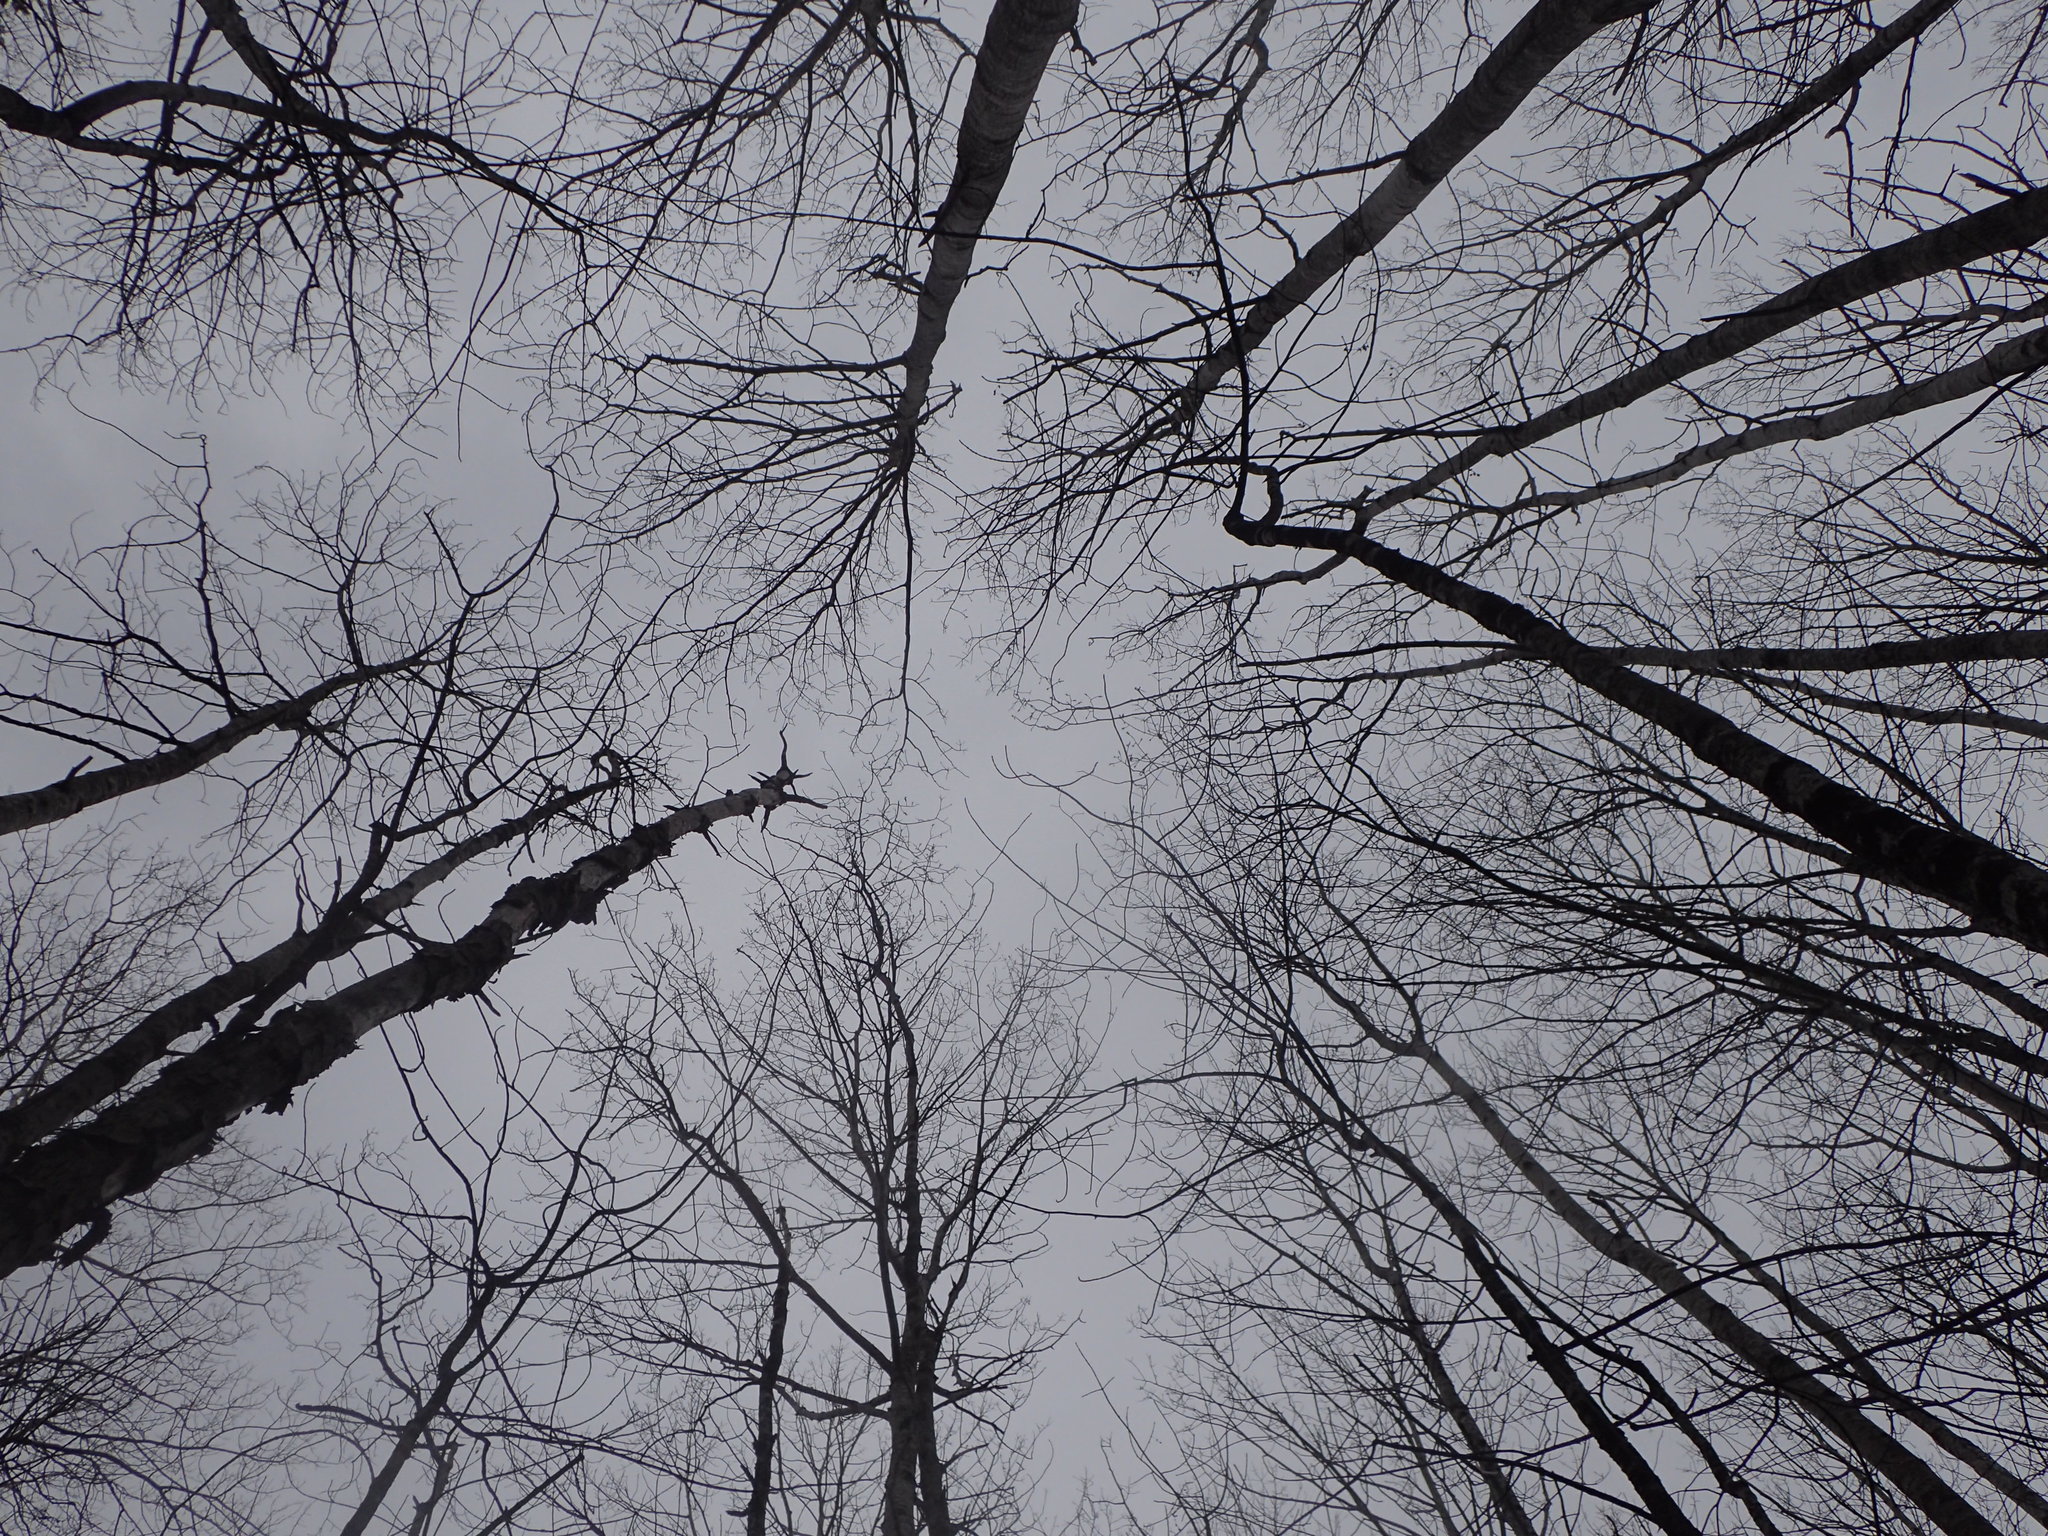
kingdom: Plantae
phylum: Tracheophyta
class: Magnoliopsida
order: Malpighiales
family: Salicaceae
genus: Populus
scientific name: Populus grandidentata
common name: Bigtooth aspen
